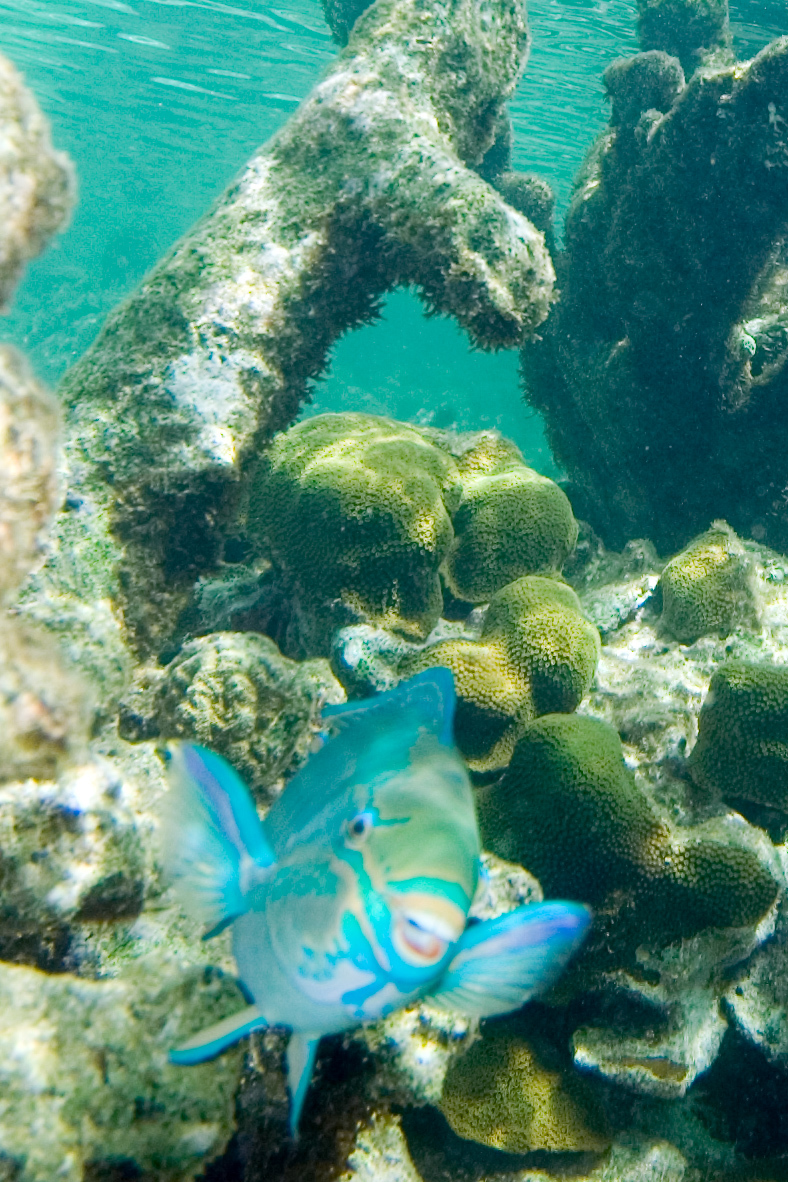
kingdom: Animalia
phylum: Chordata
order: Perciformes
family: Scaridae
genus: Scarus
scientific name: Scarus vetula
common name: Queen parrotfish
